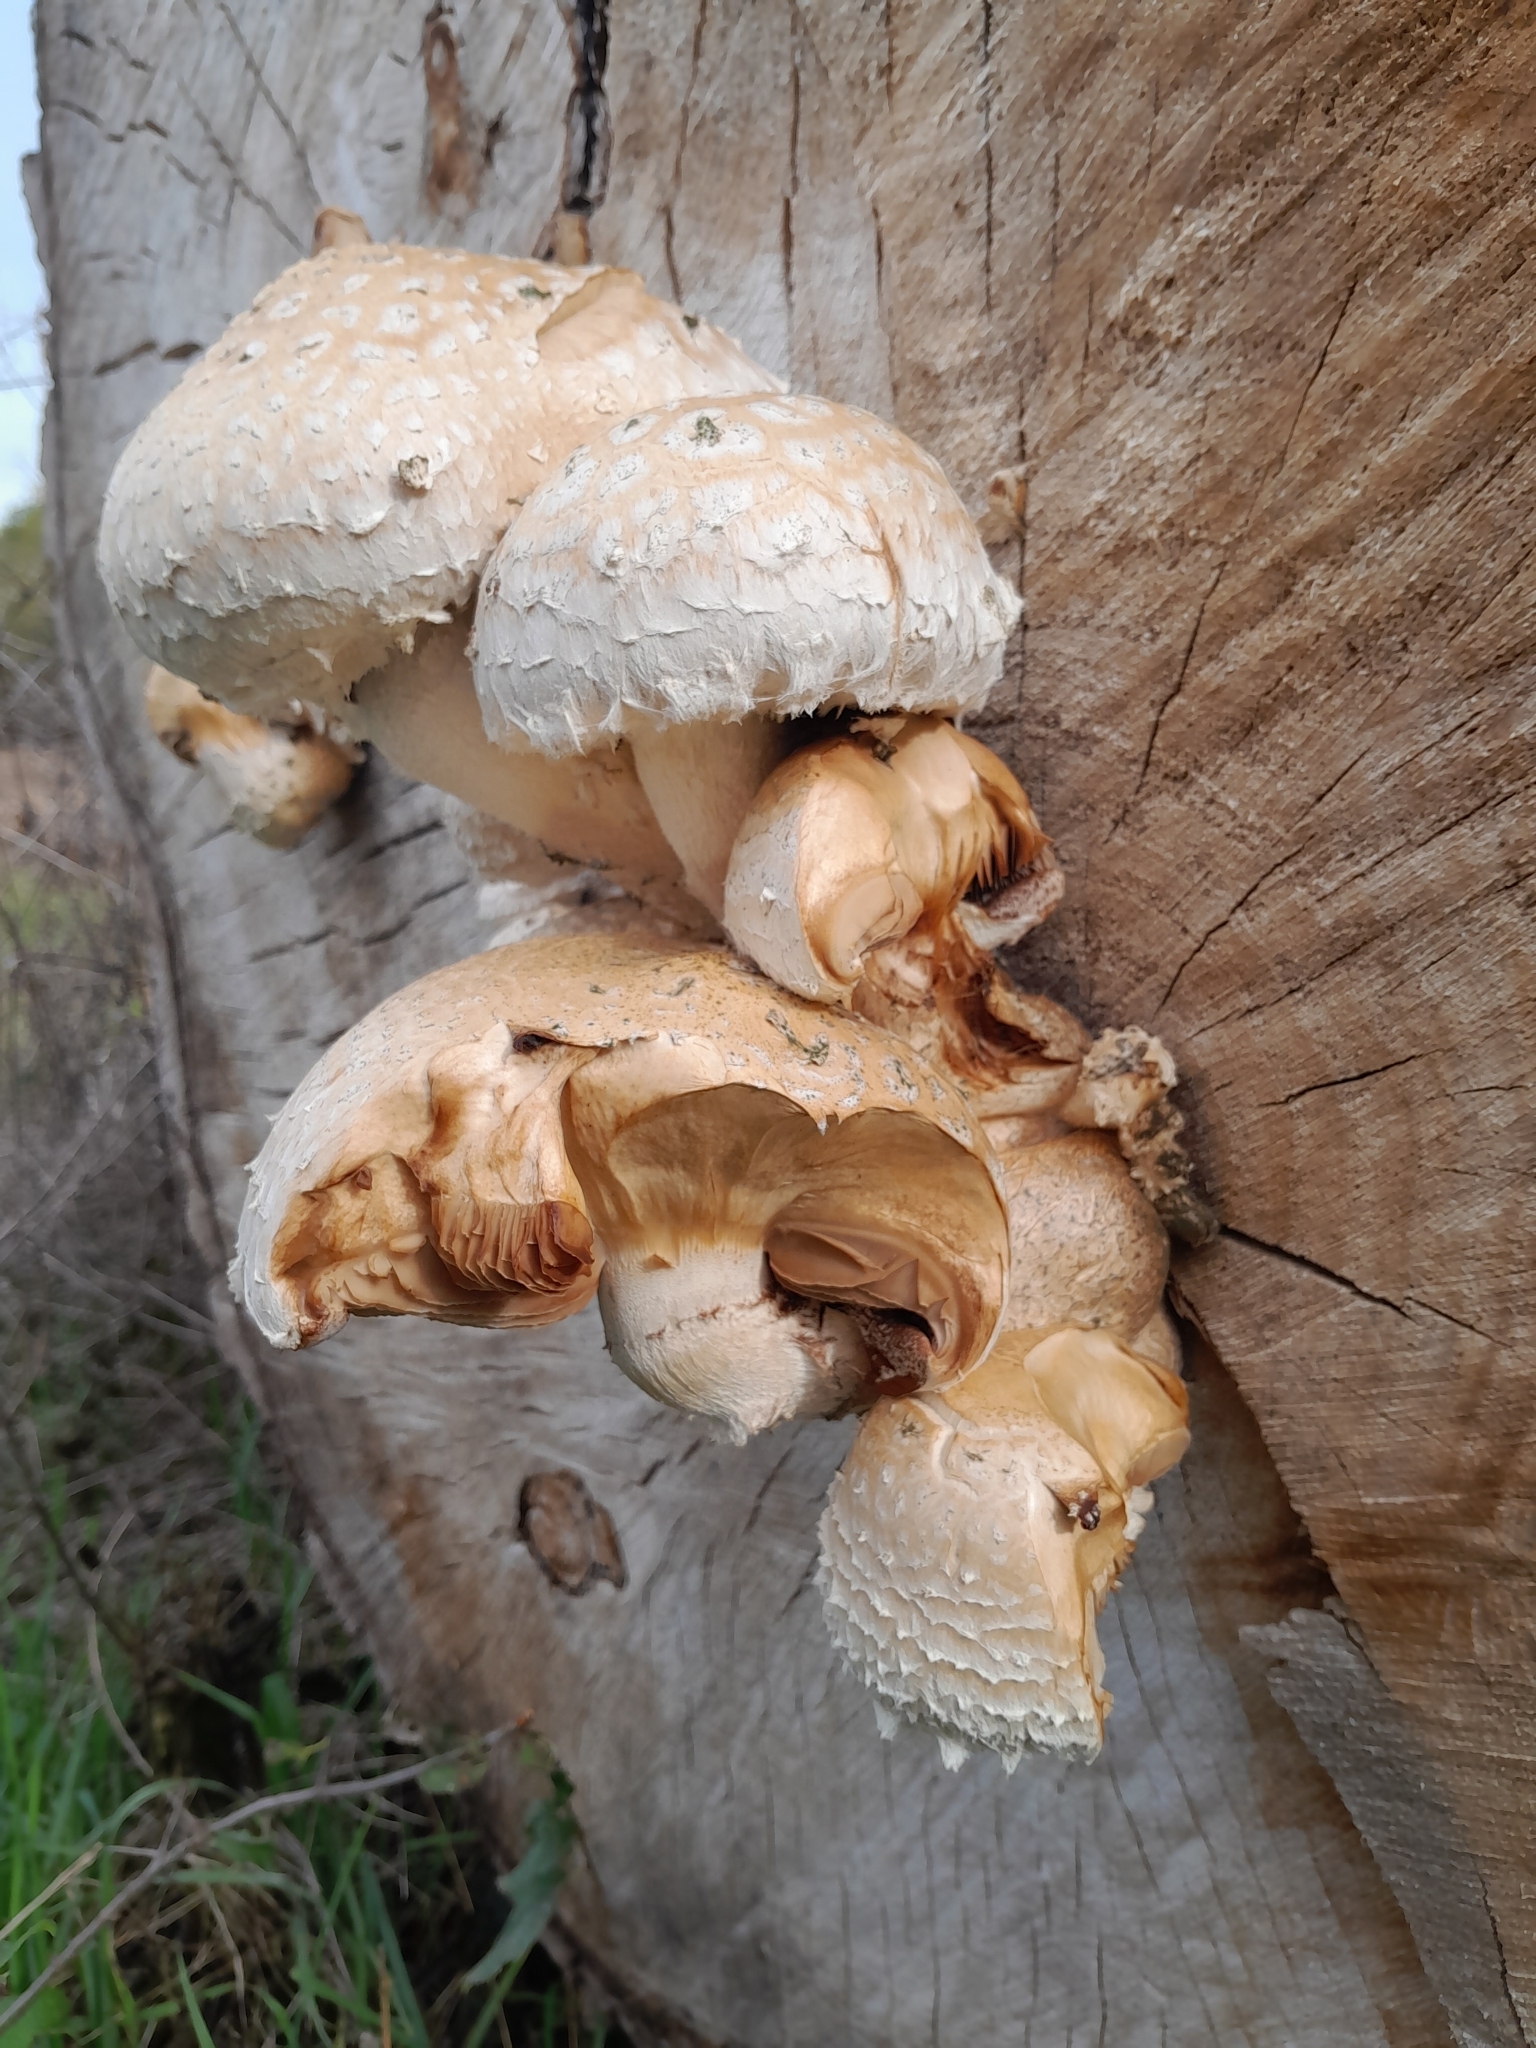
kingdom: Fungi
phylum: Basidiomycota
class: Agaricomycetes
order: Agaricales
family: Strophariaceae
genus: Pholiota
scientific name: Pholiota populnea
